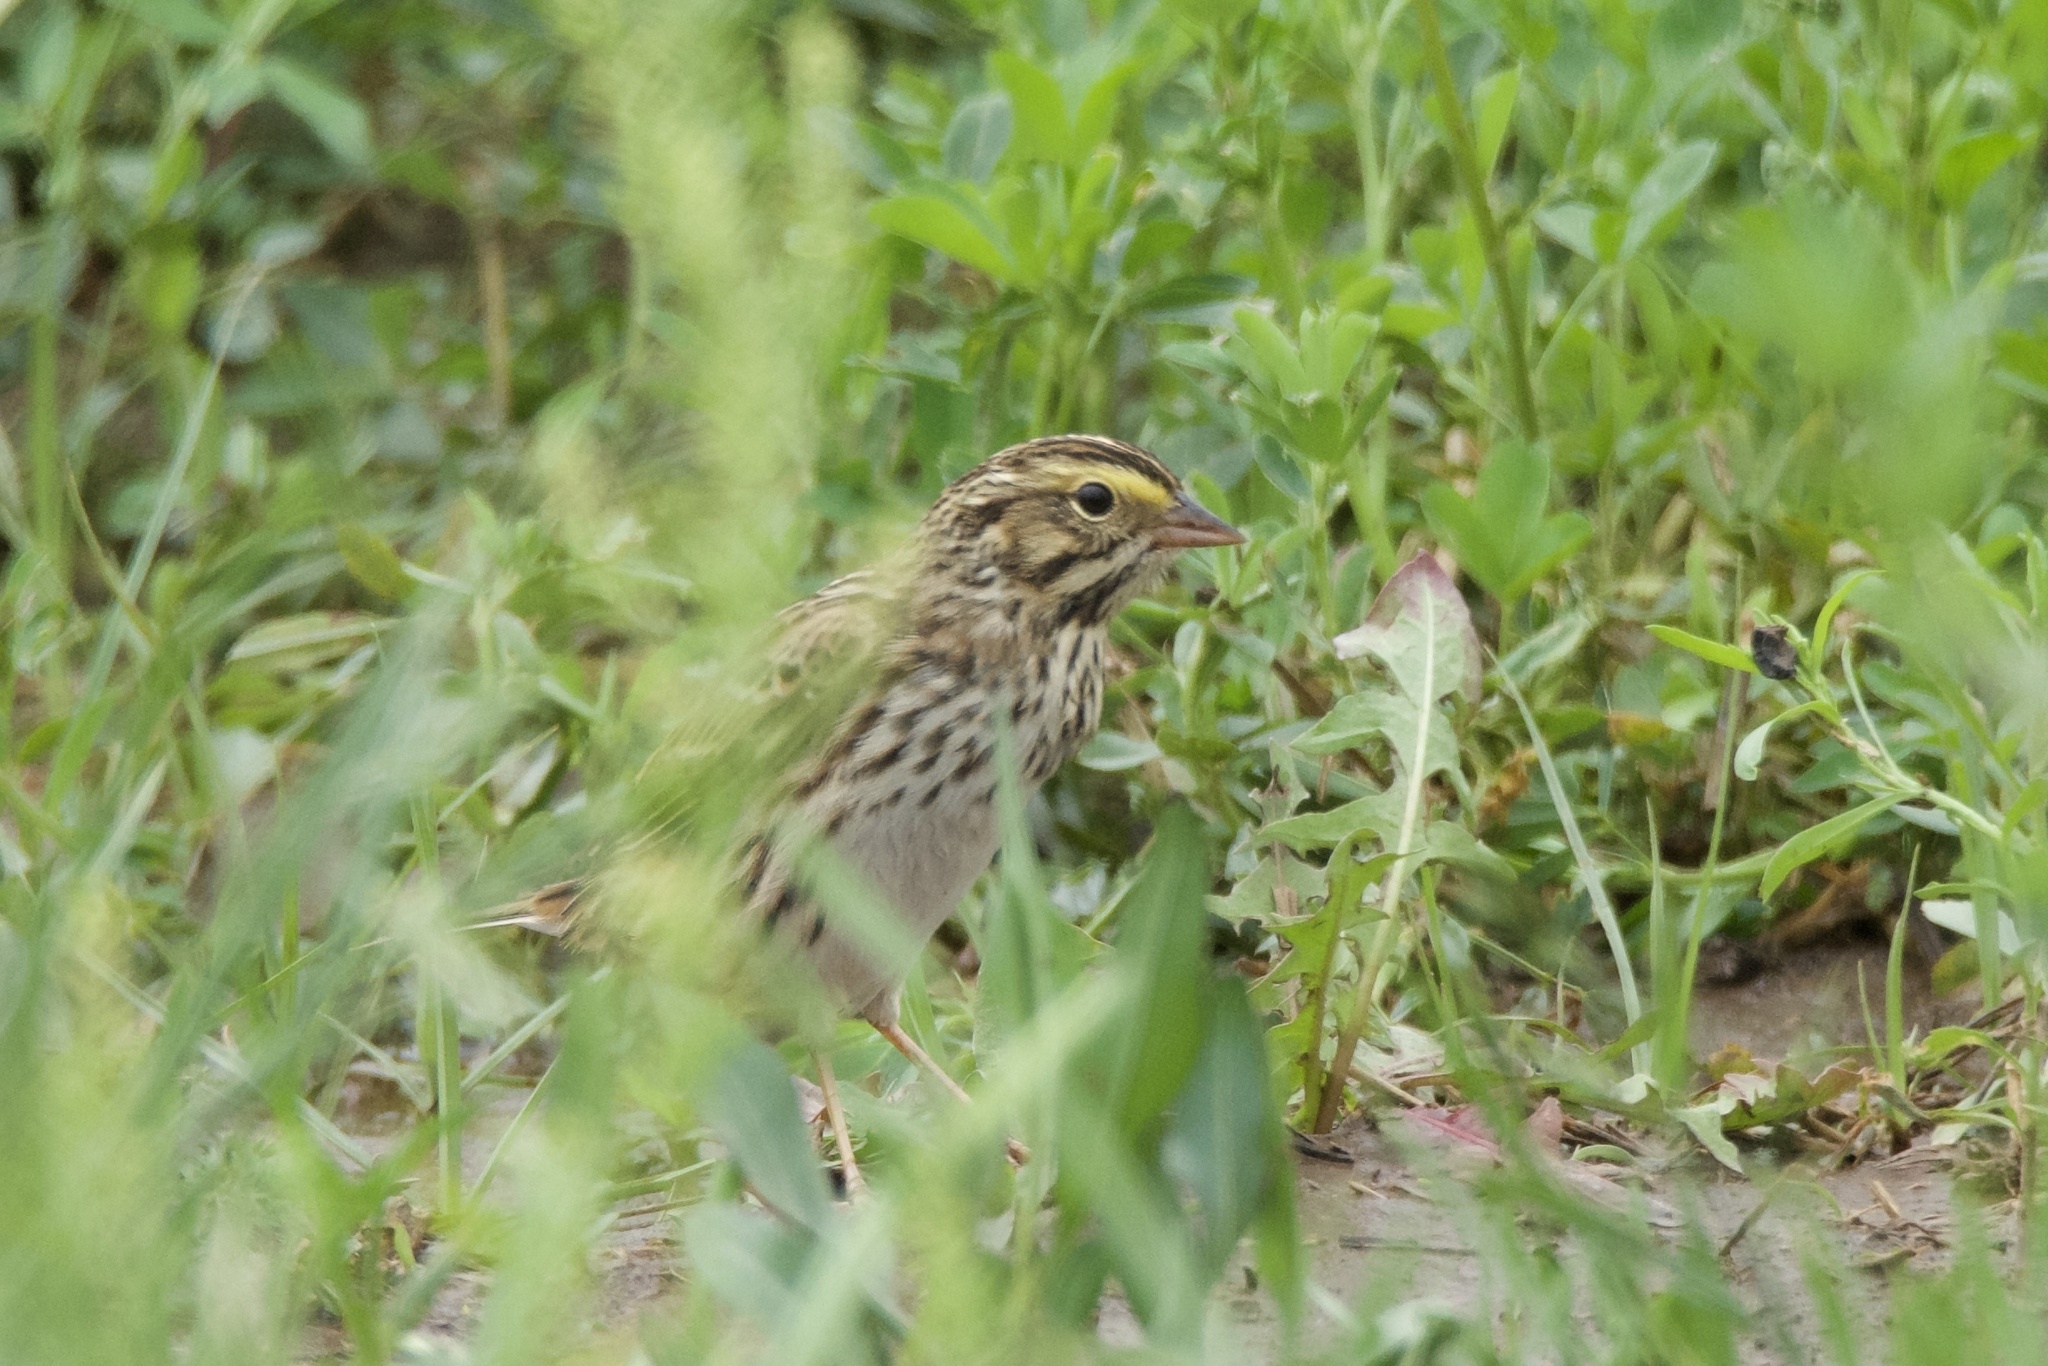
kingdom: Animalia
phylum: Chordata
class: Aves
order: Passeriformes
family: Passerellidae
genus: Passerculus
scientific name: Passerculus sandwichensis
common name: Savannah sparrow
